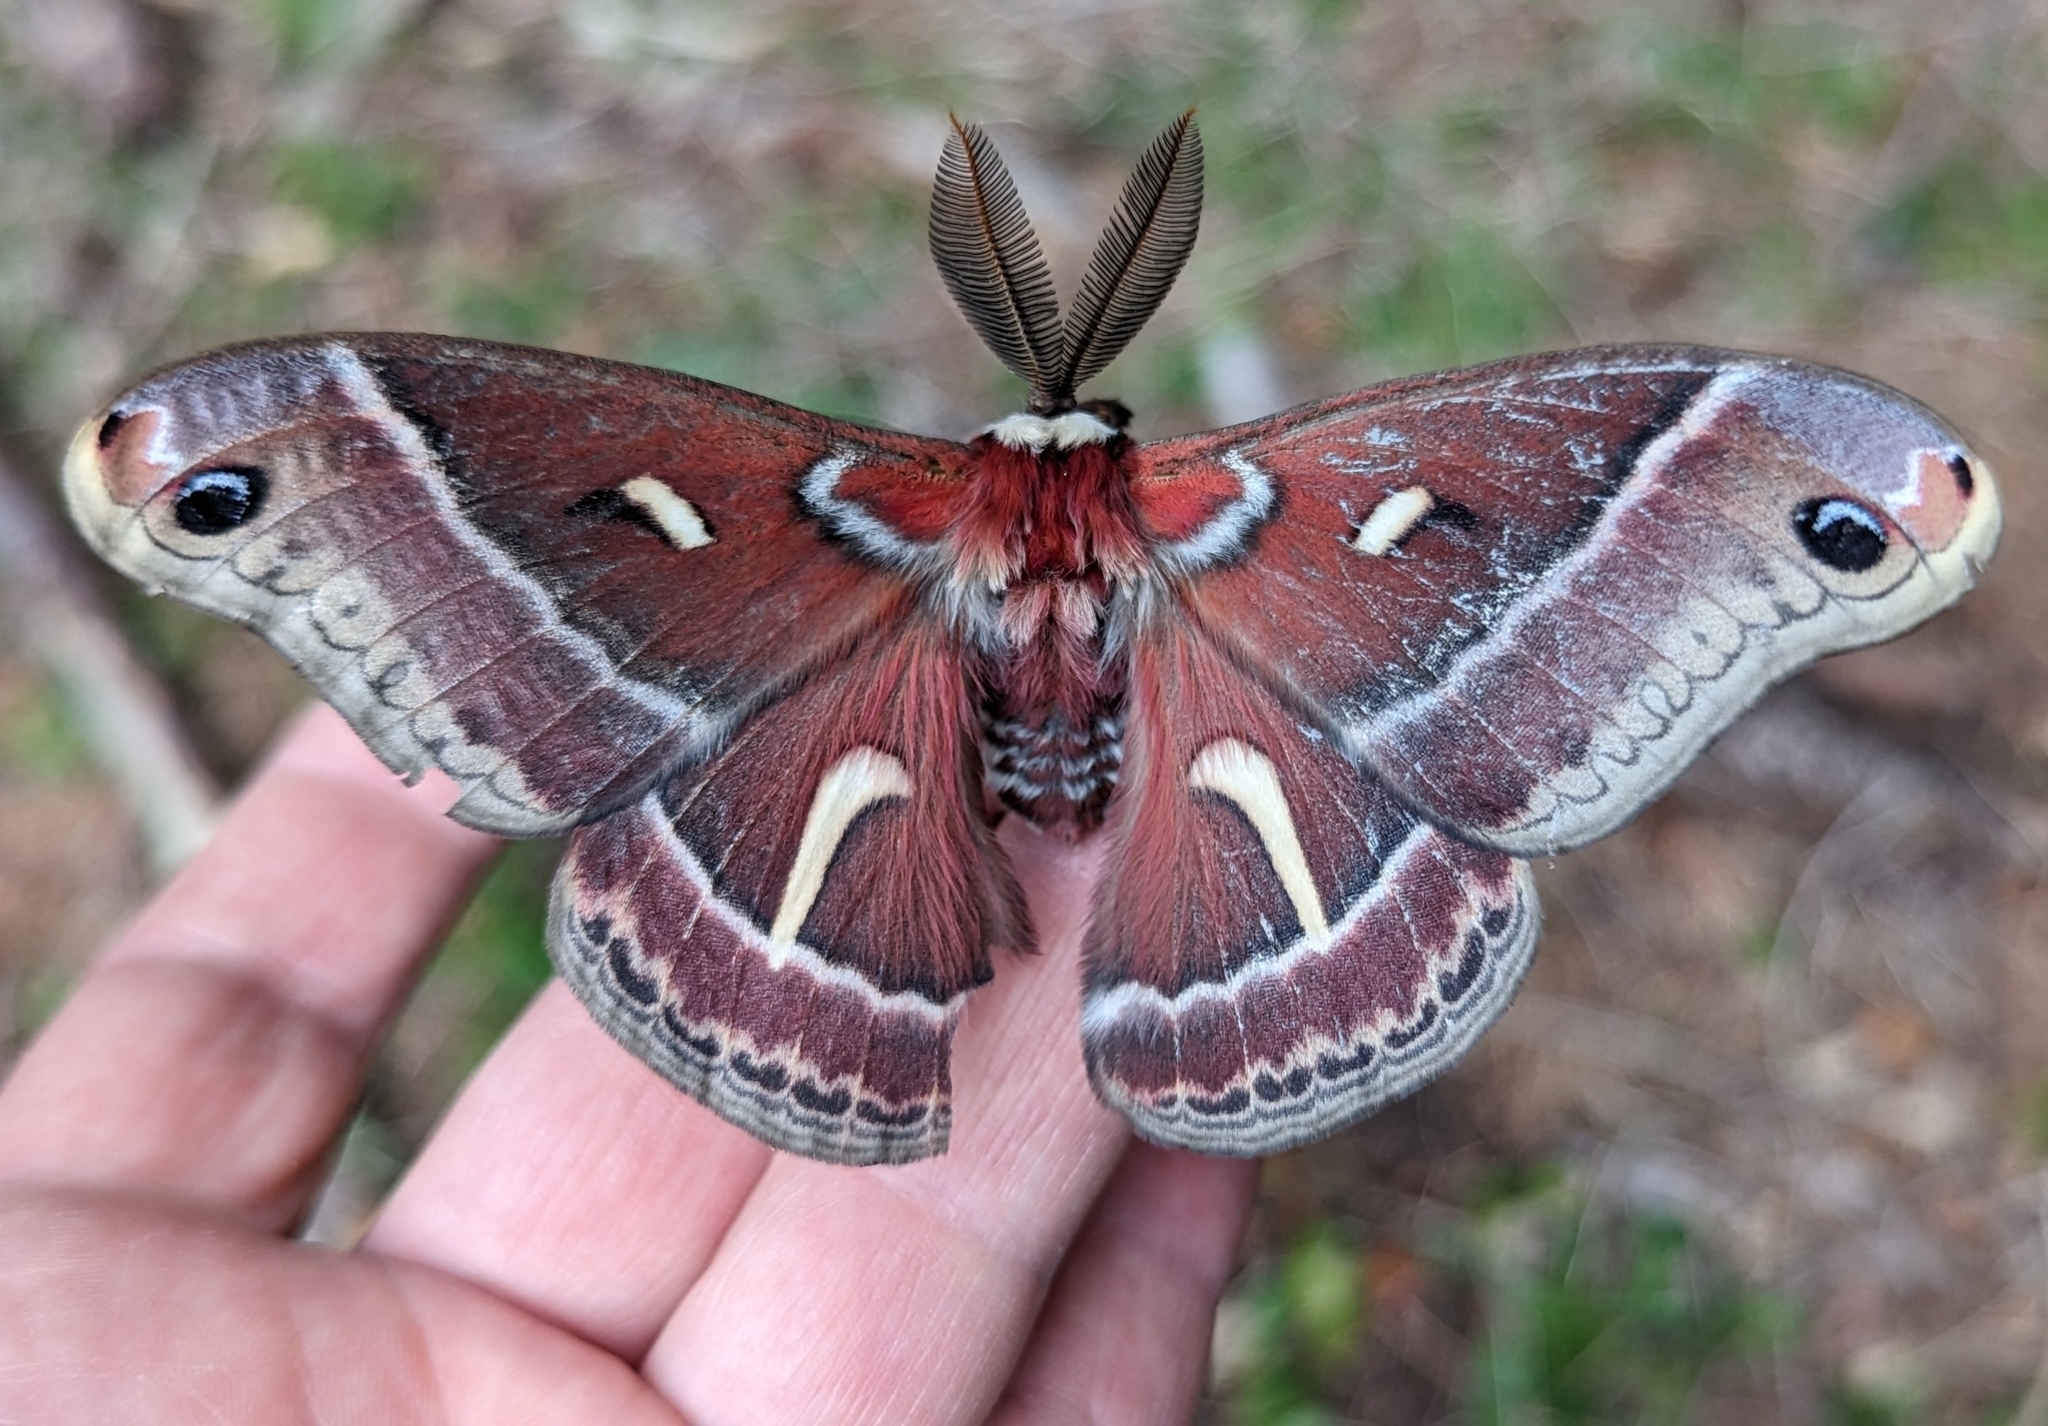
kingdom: Animalia
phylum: Arthropoda
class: Insecta
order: Lepidoptera
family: Saturniidae
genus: Hyalophora
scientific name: Hyalophora euryalus
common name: Ceanothus silkmoth
